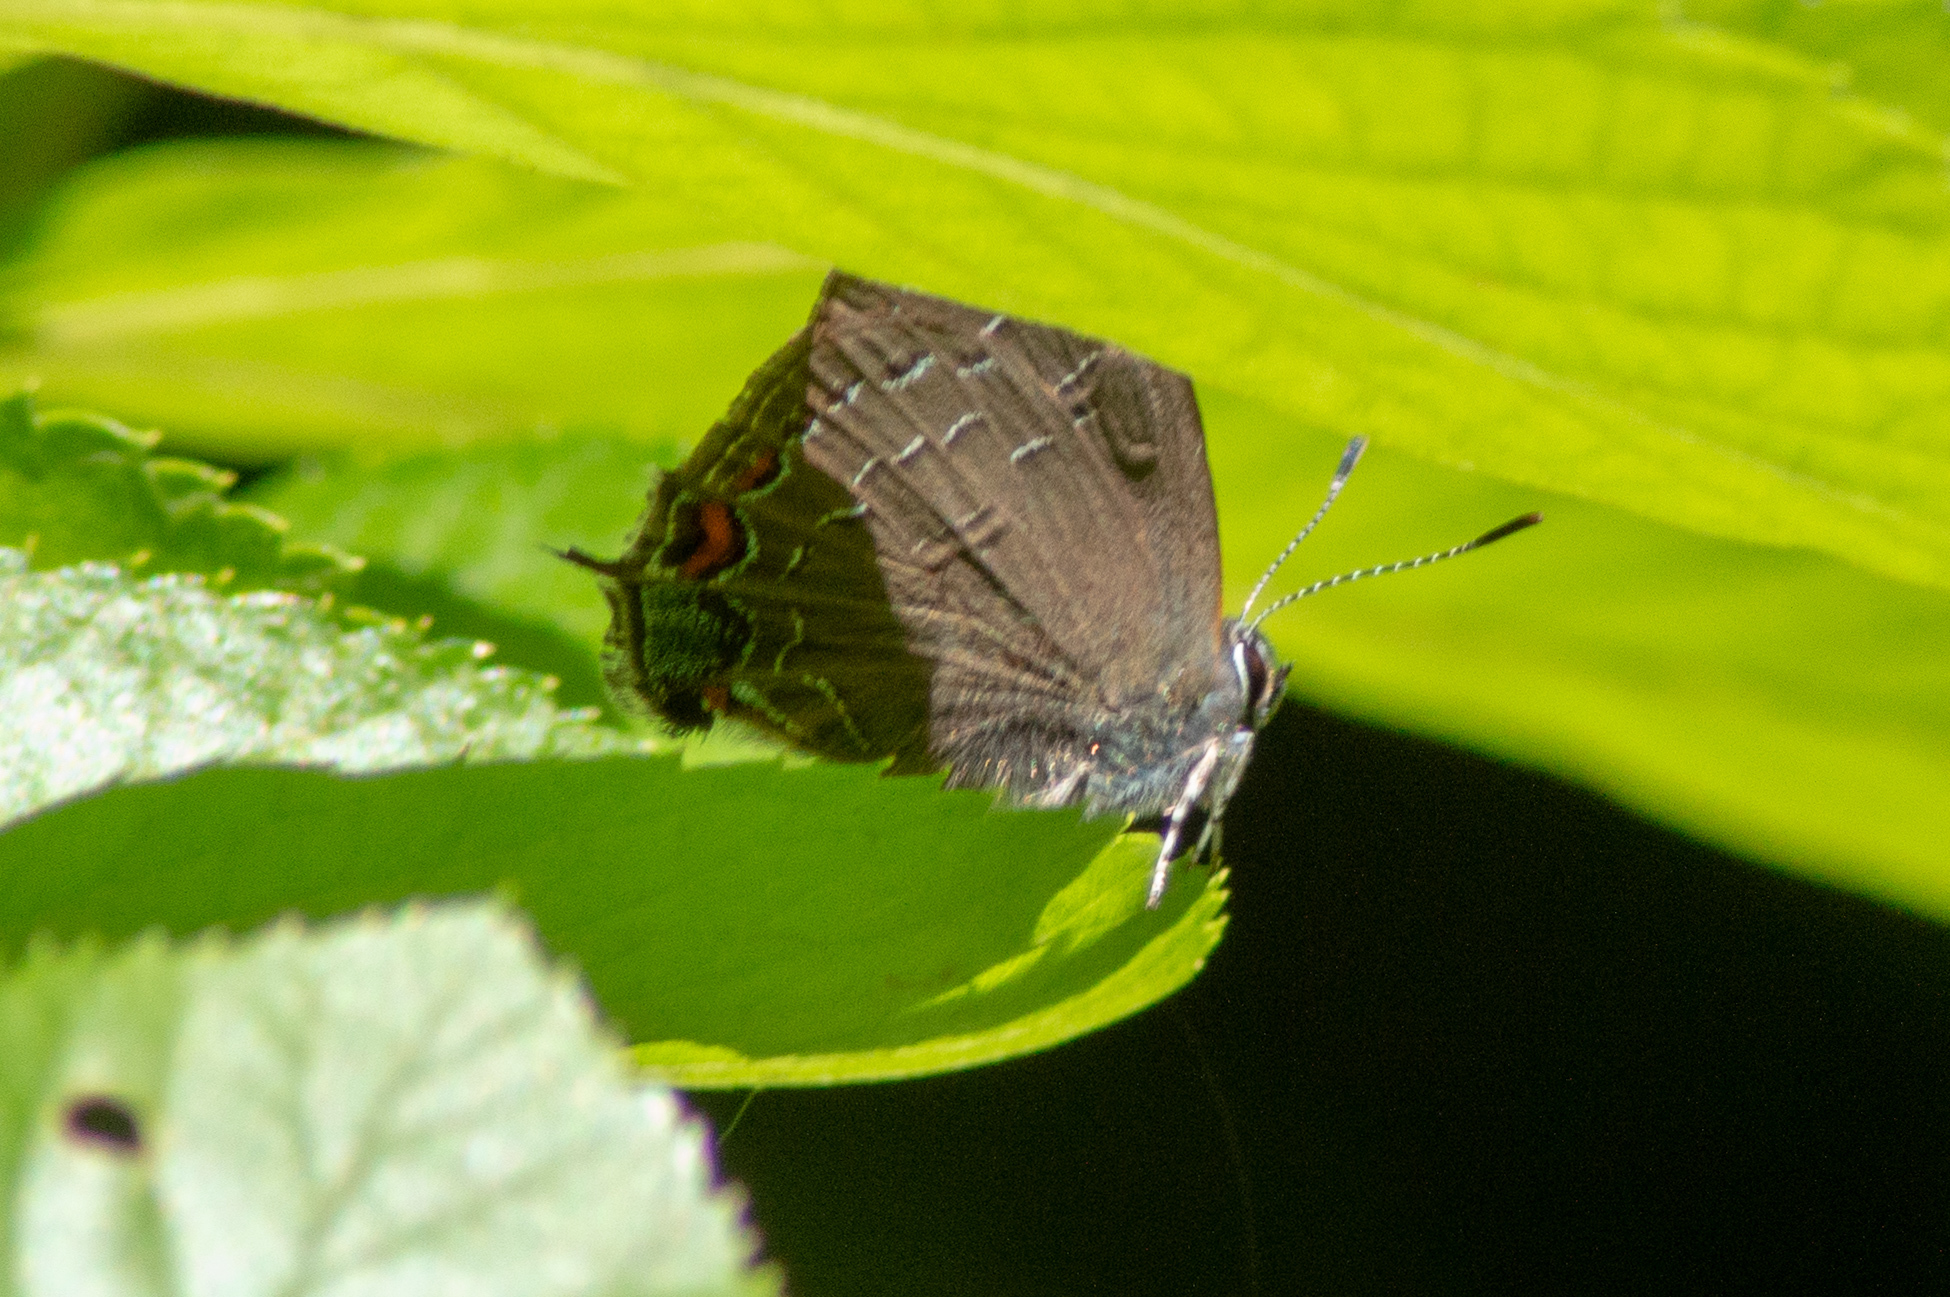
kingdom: Animalia
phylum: Arthropoda
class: Insecta
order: Lepidoptera
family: Lycaenidae
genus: Satyrium
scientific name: Satyrium calanus
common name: Banded hairstreak
